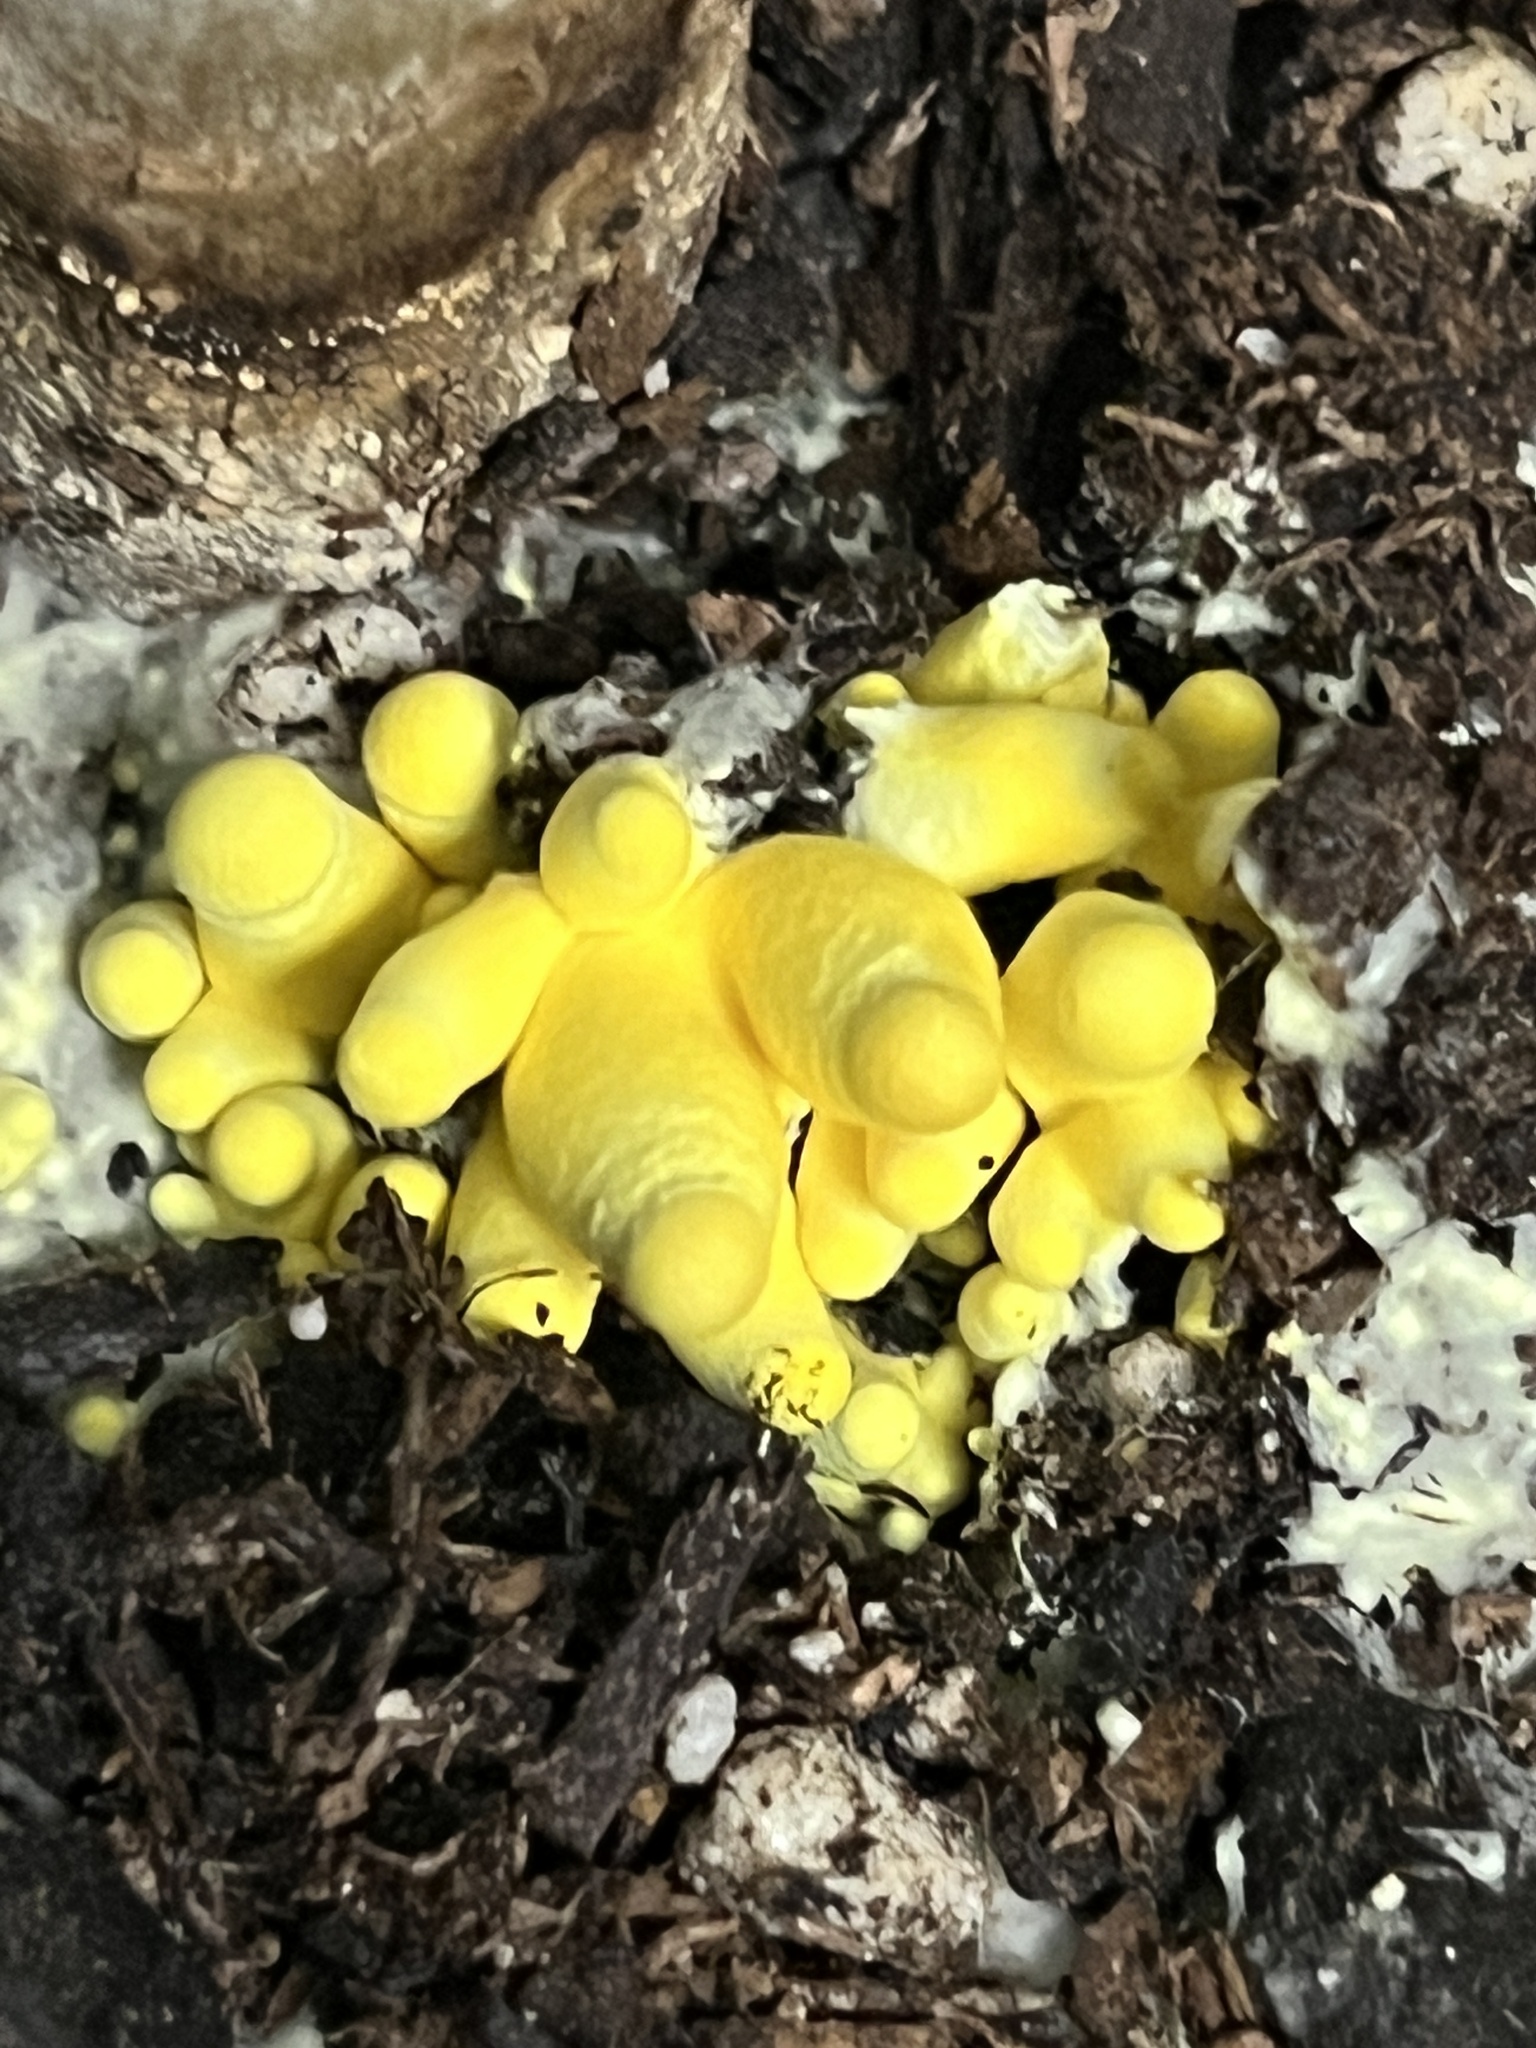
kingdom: Fungi
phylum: Basidiomycota
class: Agaricomycetes
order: Agaricales
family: Agaricaceae
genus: Leucocoprinus
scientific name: Leucocoprinus birnbaumii
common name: Plantpot dapperling
